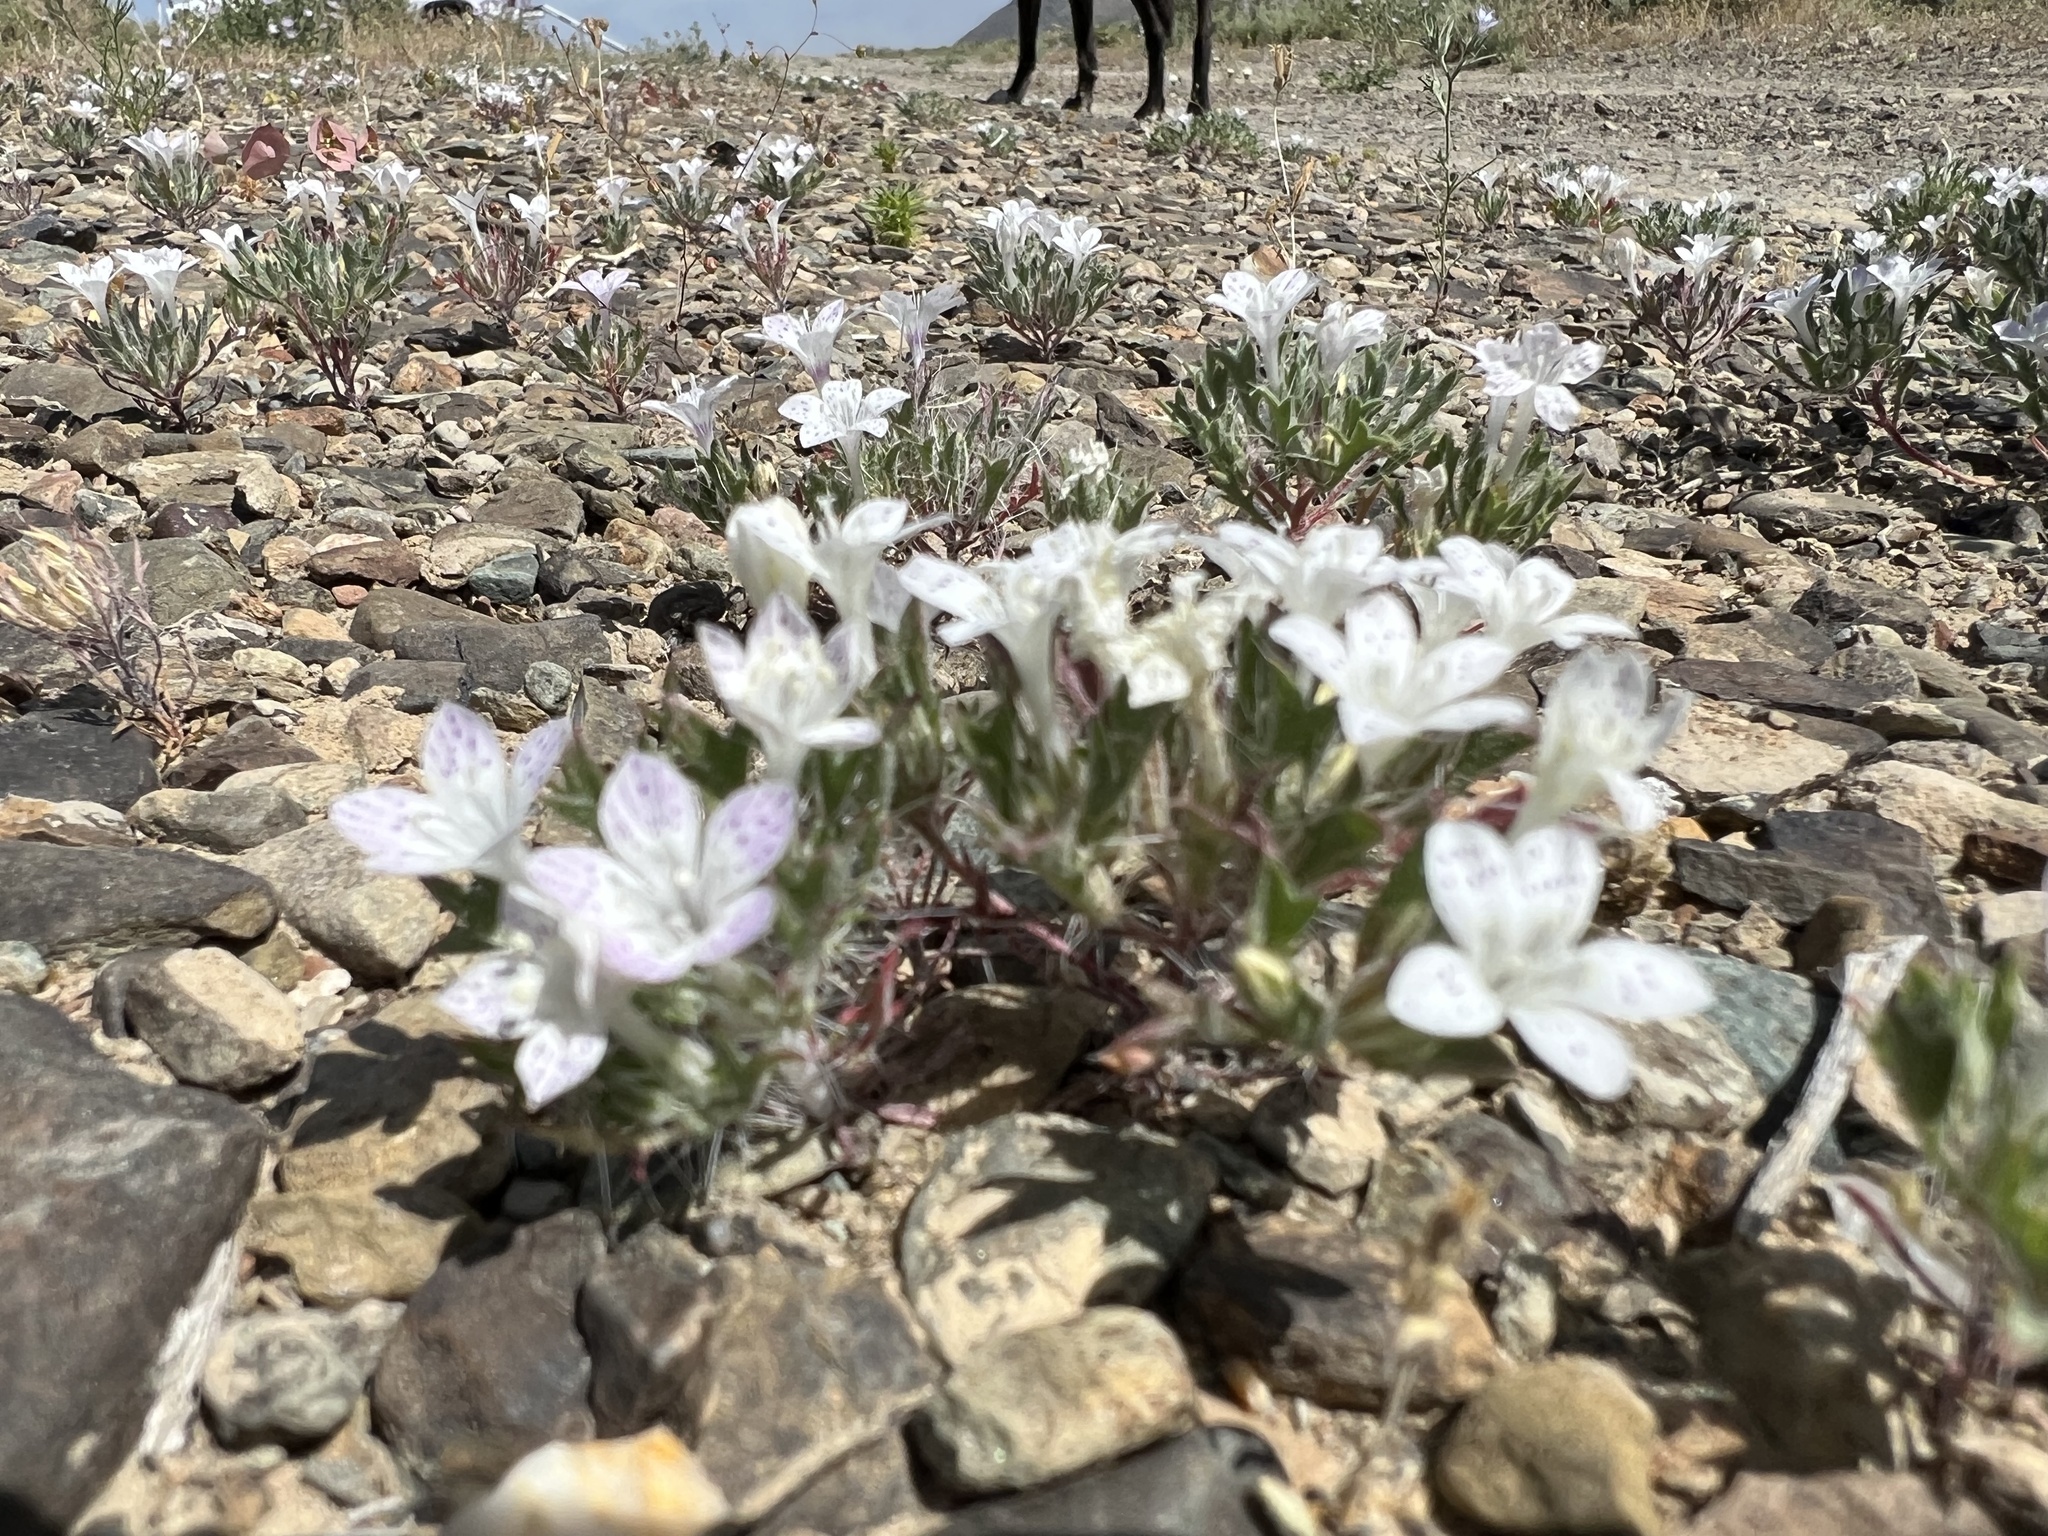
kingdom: Plantae
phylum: Tracheophyta
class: Magnoliopsida
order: Ericales
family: Polemoniaceae
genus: Langloisia
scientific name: Langloisia setosissima
